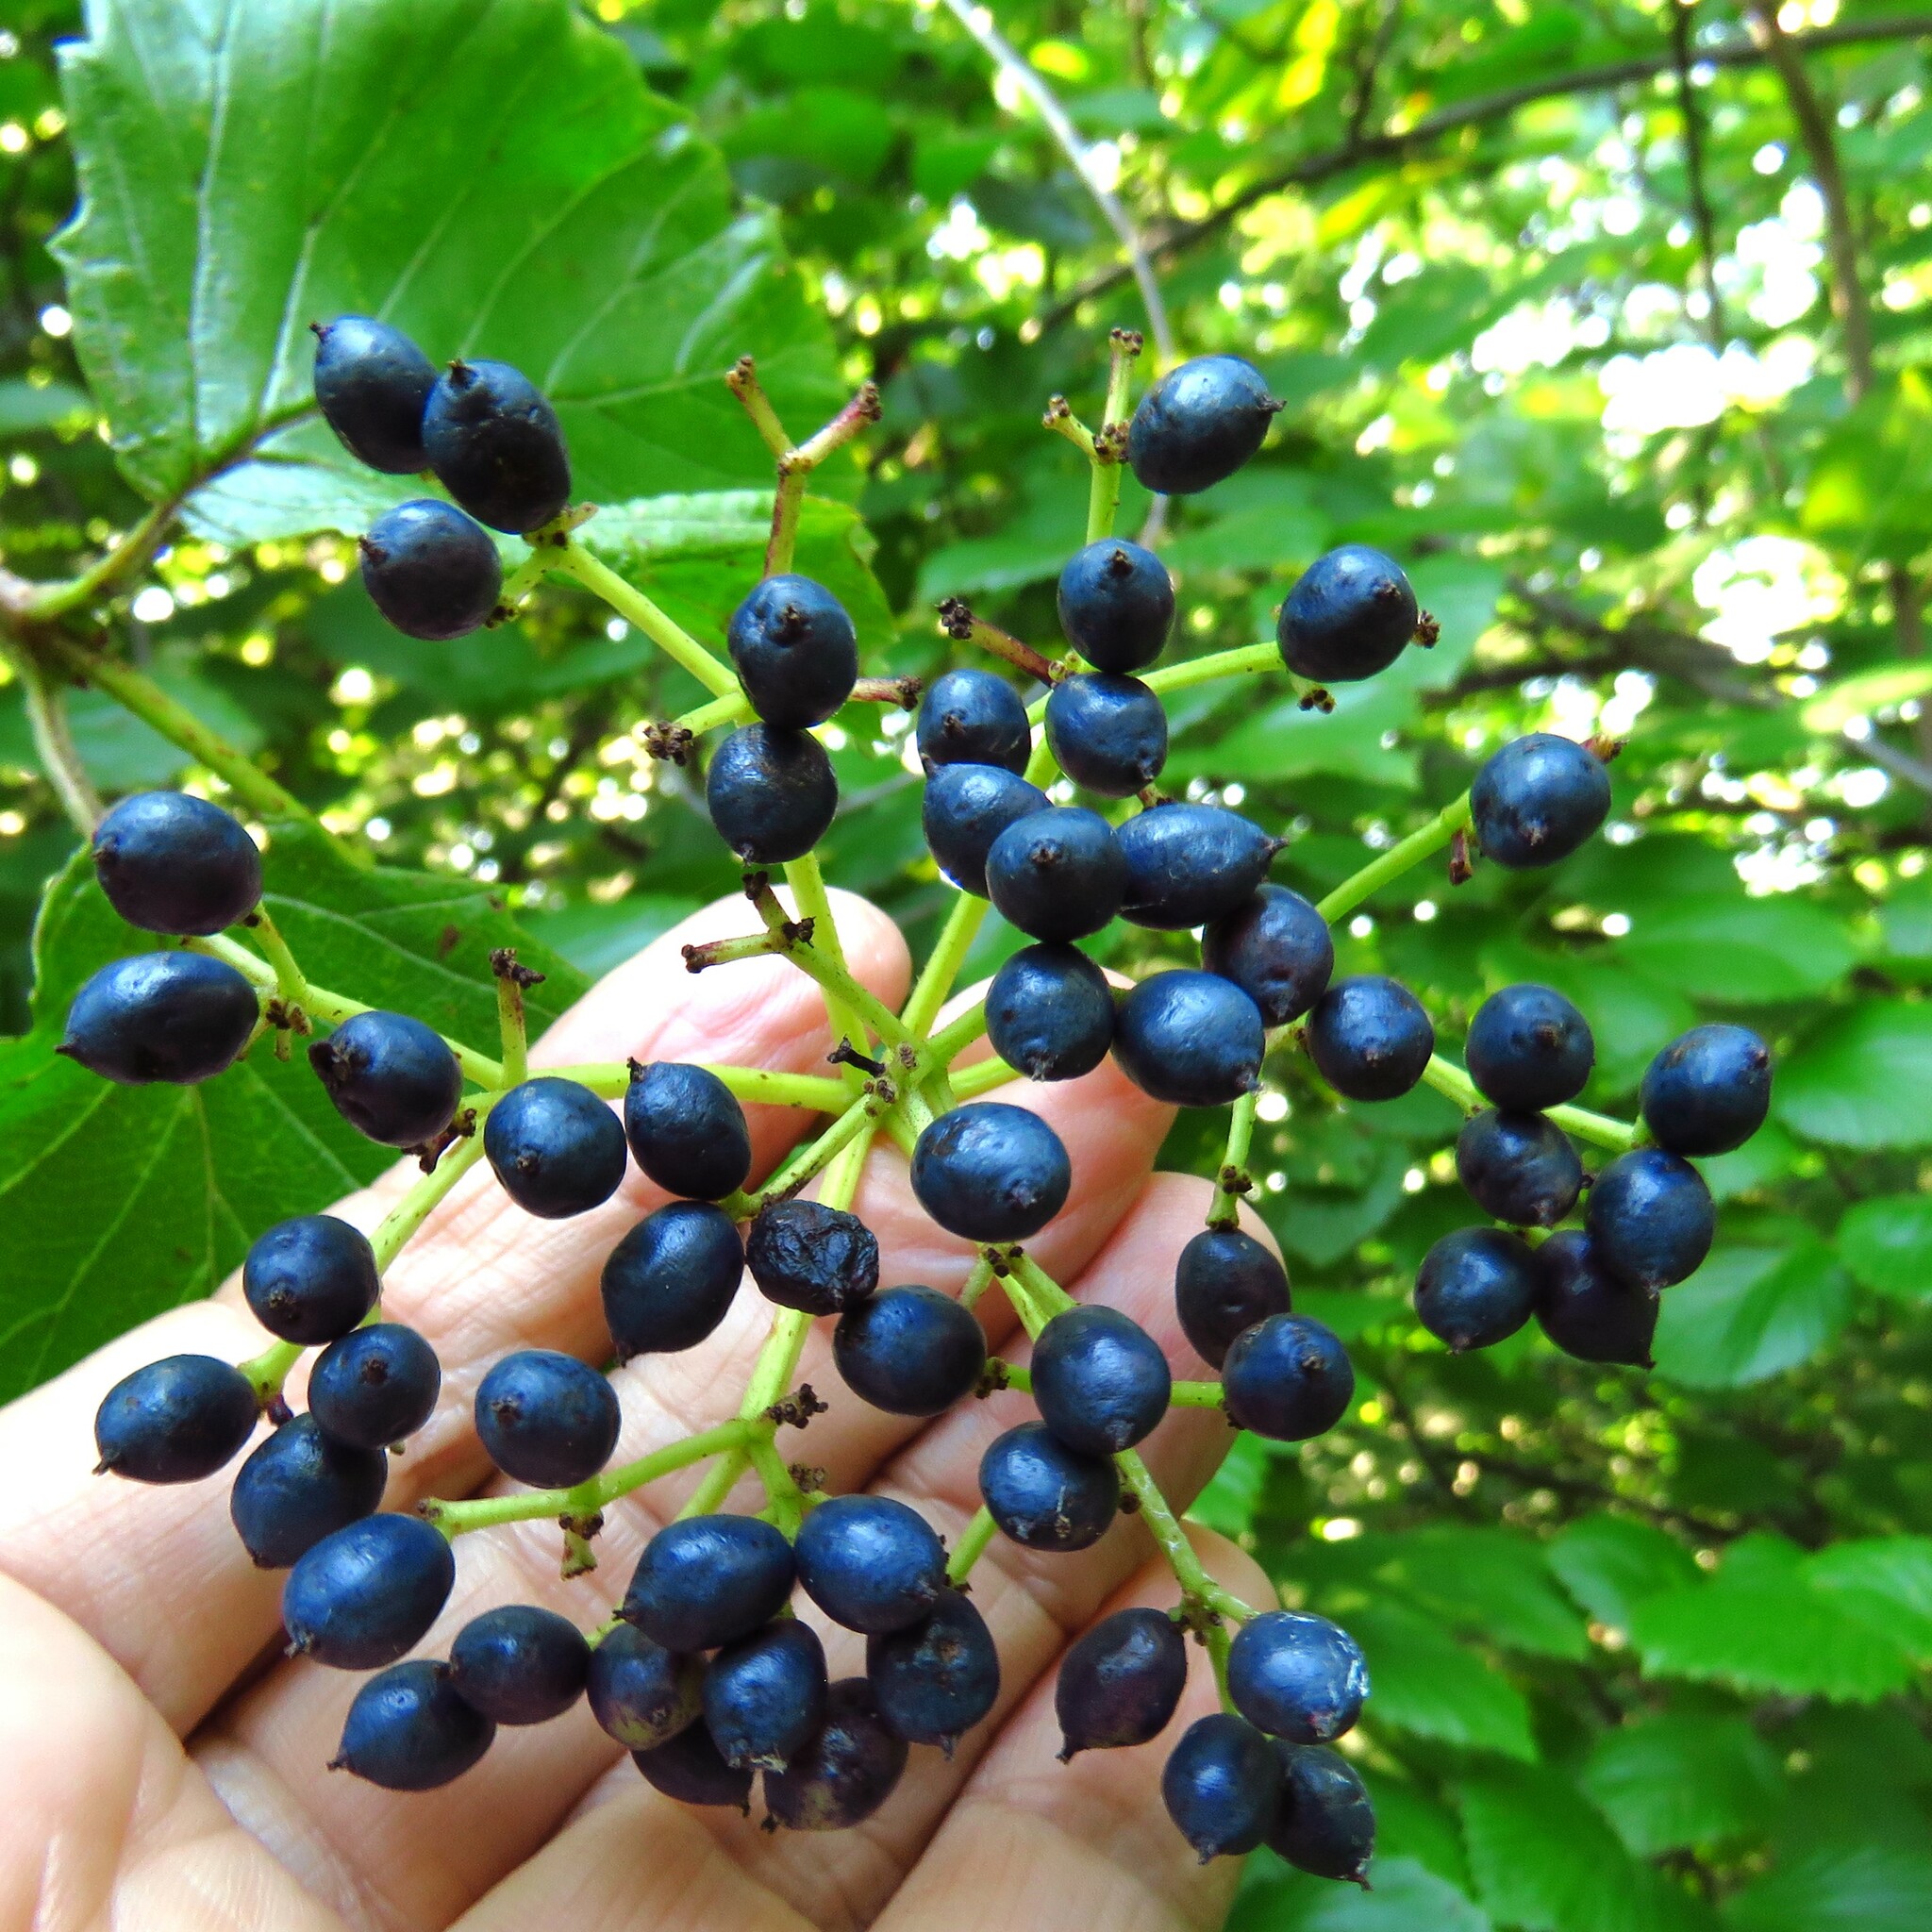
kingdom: Plantae
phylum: Tracheophyta
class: Magnoliopsida
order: Dipsacales
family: Viburnaceae
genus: Viburnum
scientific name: Viburnum dentatum
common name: Arrow-wood
